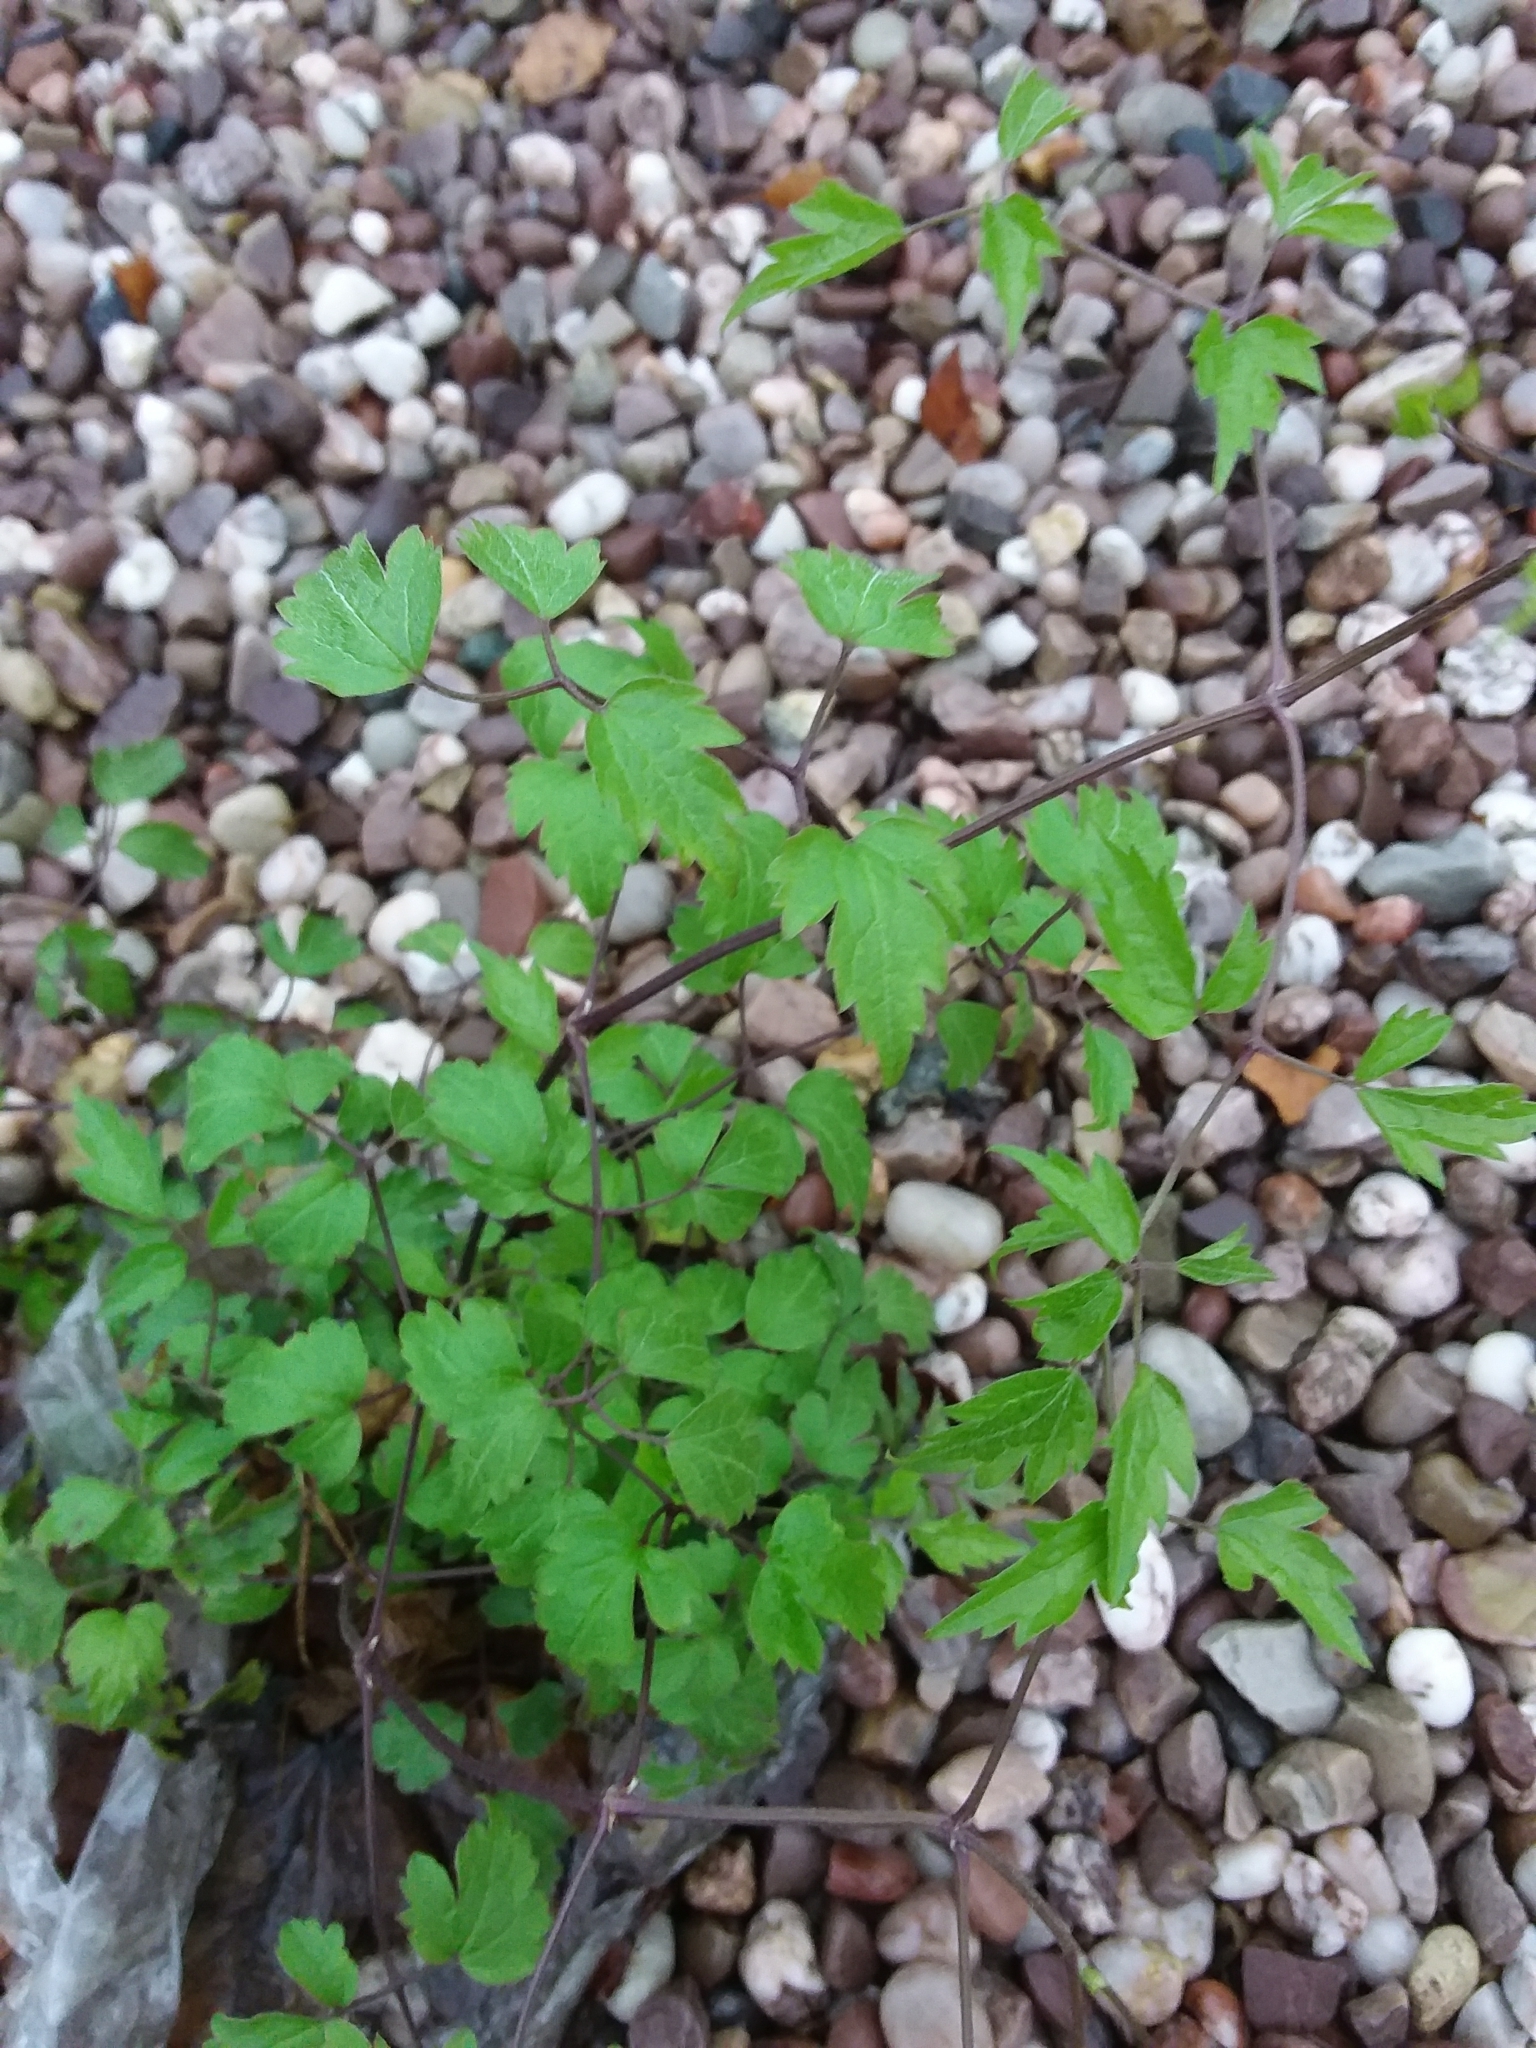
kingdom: Plantae
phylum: Tracheophyta
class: Magnoliopsida
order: Ranunculales
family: Ranunculaceae
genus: Clematis
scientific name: Clematis vitalba
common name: Evergreen clematis
